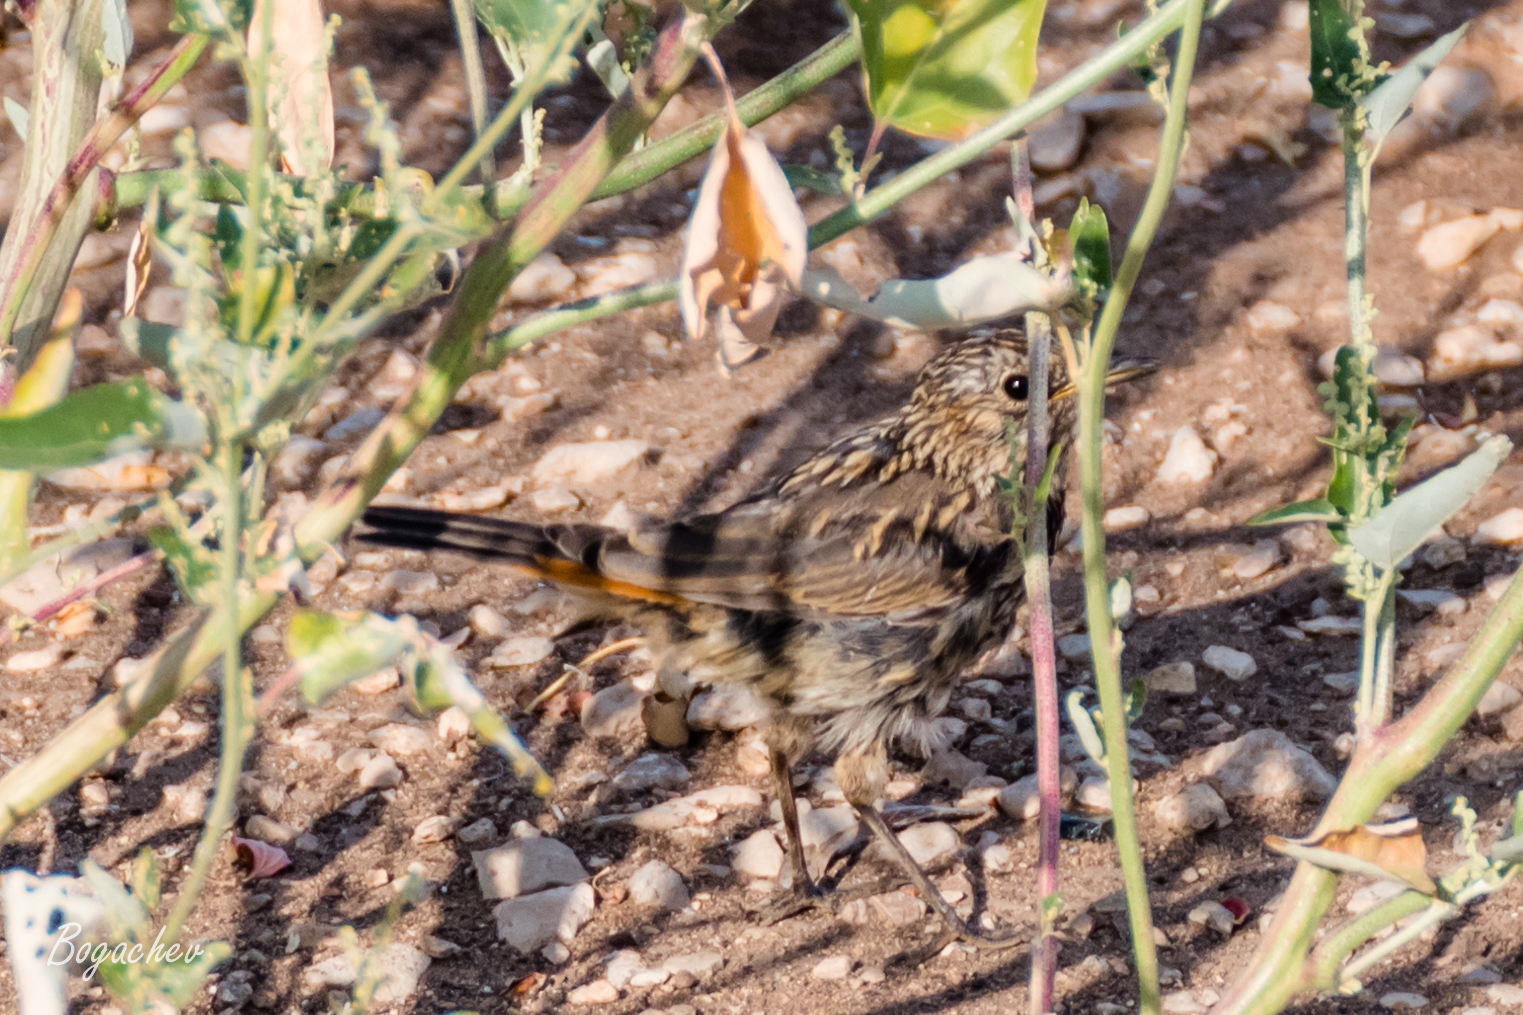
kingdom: Animalia
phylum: Chordata
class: Aves
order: Passeriformes
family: Muscicapidae
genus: Luscinia
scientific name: Luscinia svecica
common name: Bluethroat
